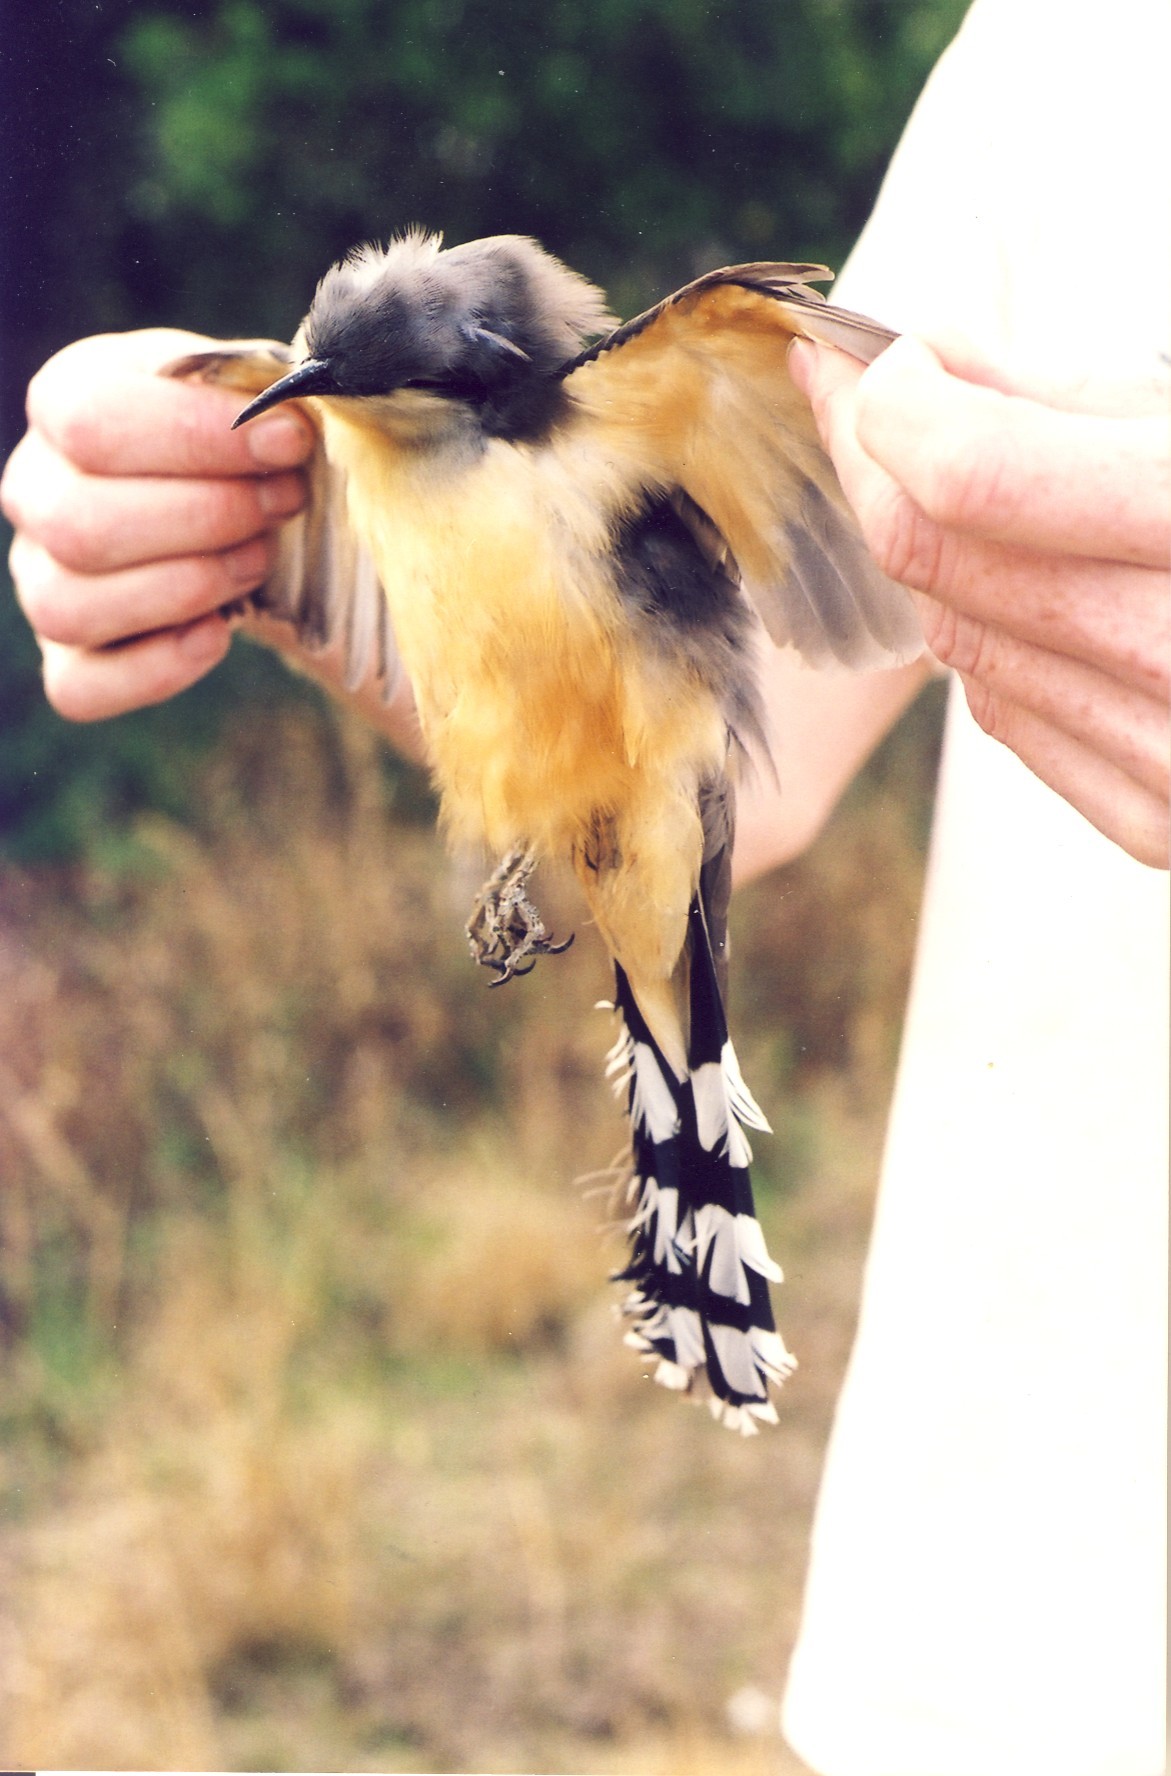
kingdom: Animalia
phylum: Chordata
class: Aves
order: Cuculiformes
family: Cuculidae
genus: Coccyzus
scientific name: Coccyzus minor
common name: Mangrove cuckoo
